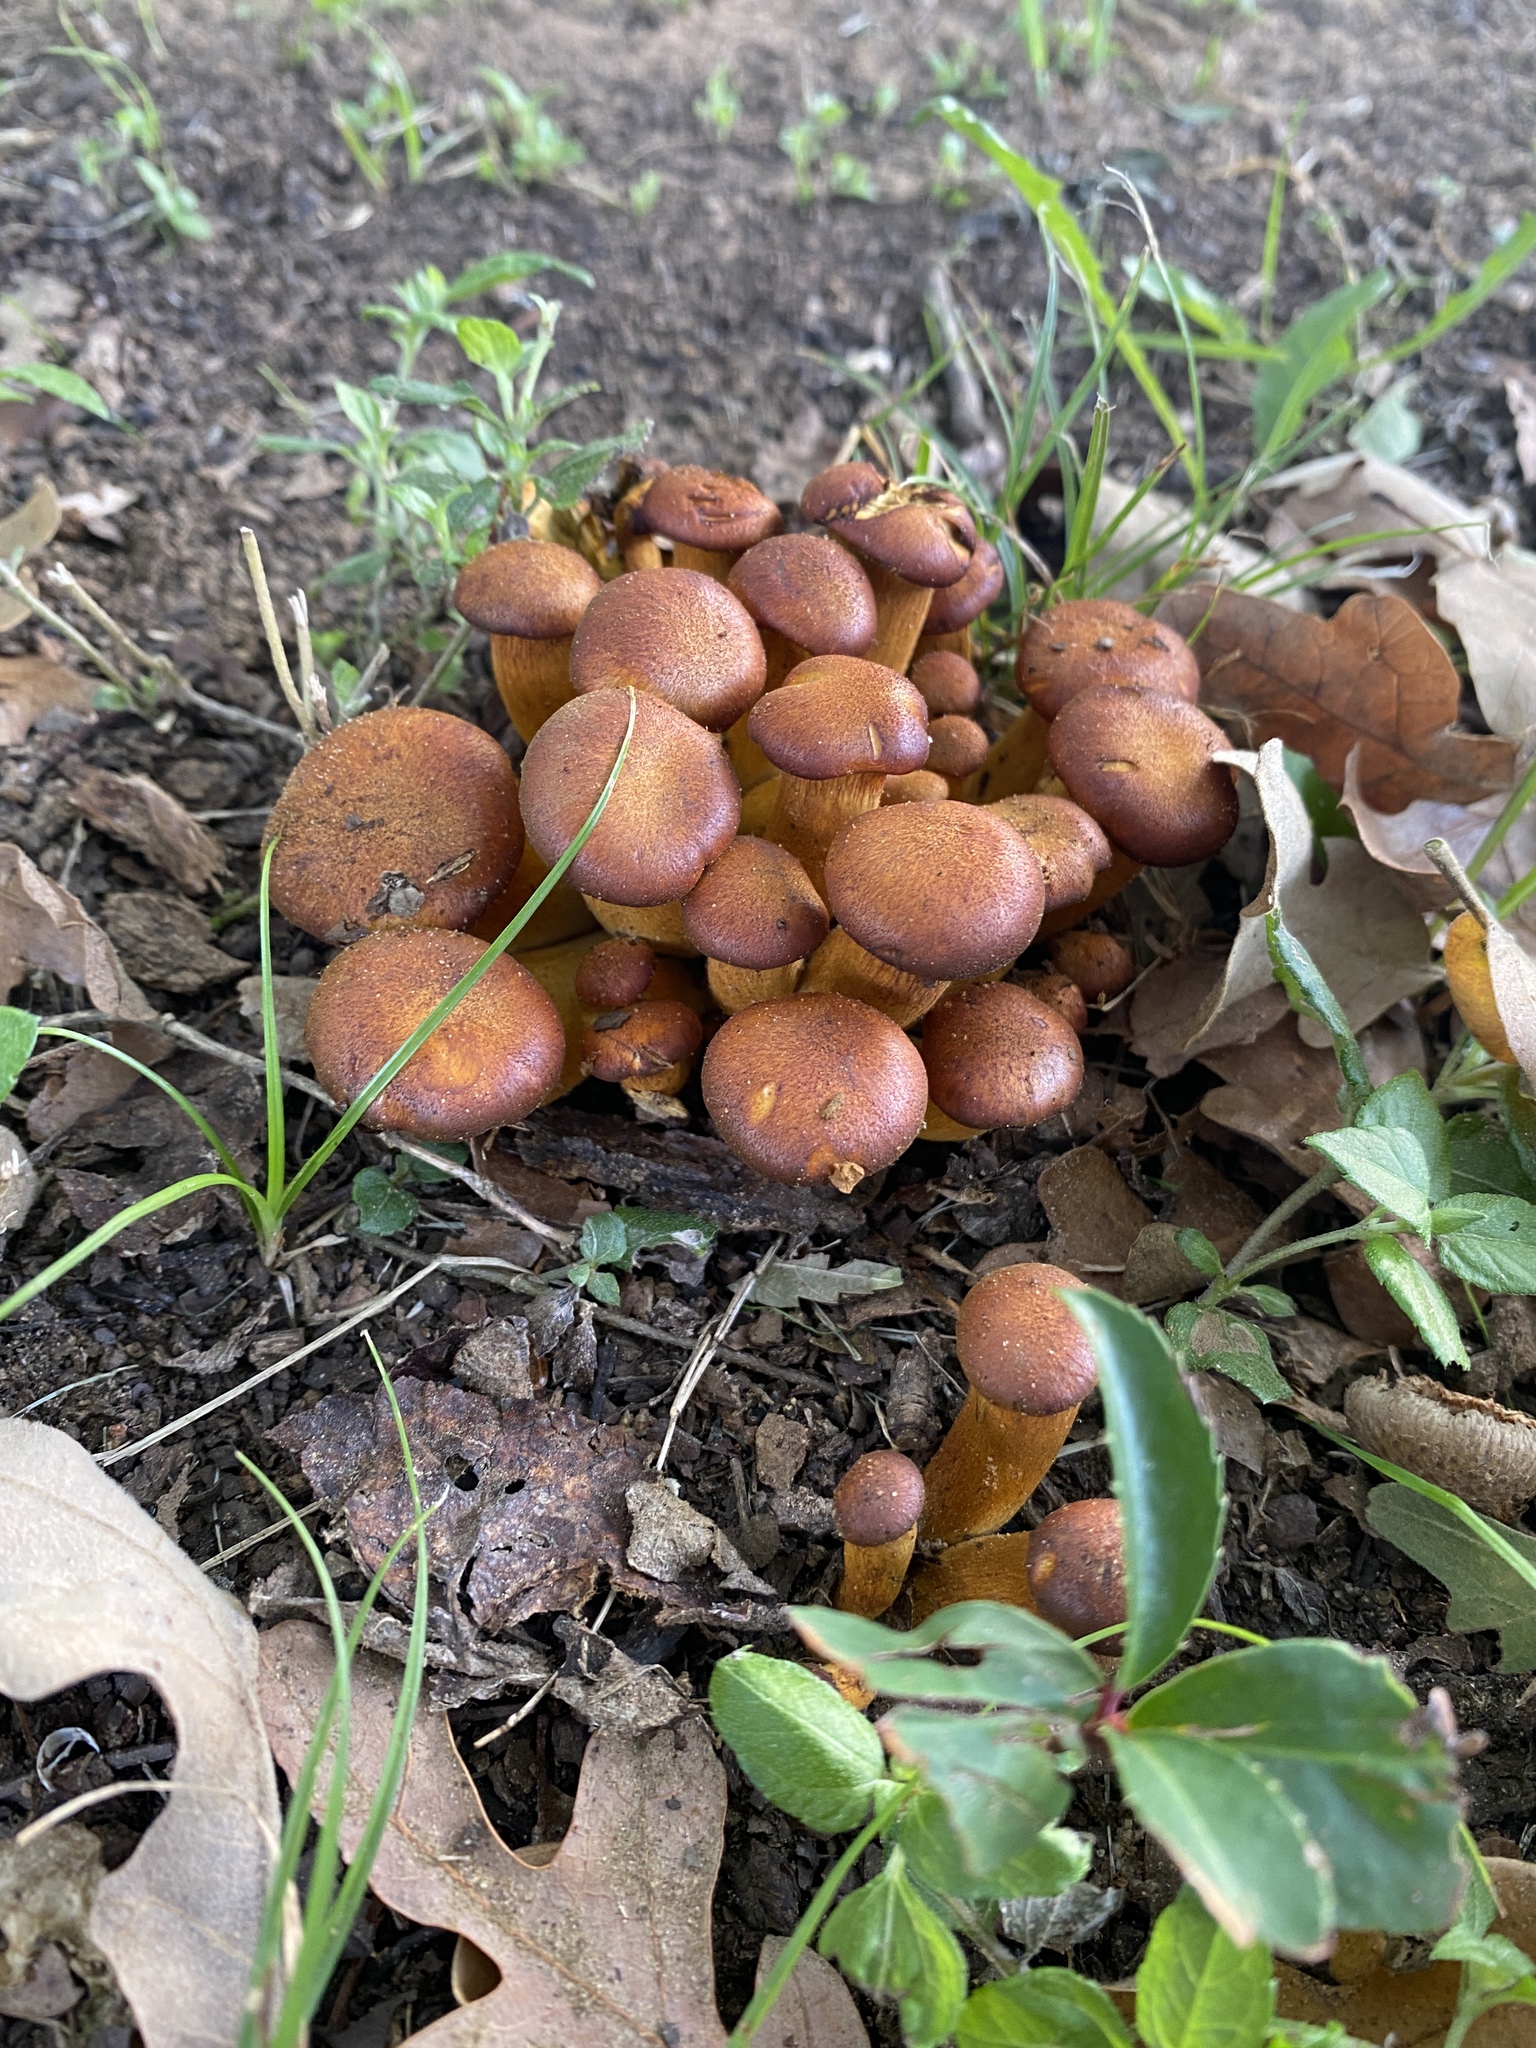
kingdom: Fungi
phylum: Basidiomycota
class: Agaricomycetes
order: Agaricales
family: Omphalotaceae
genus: Omphalotus
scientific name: Omphalotus subilludens
